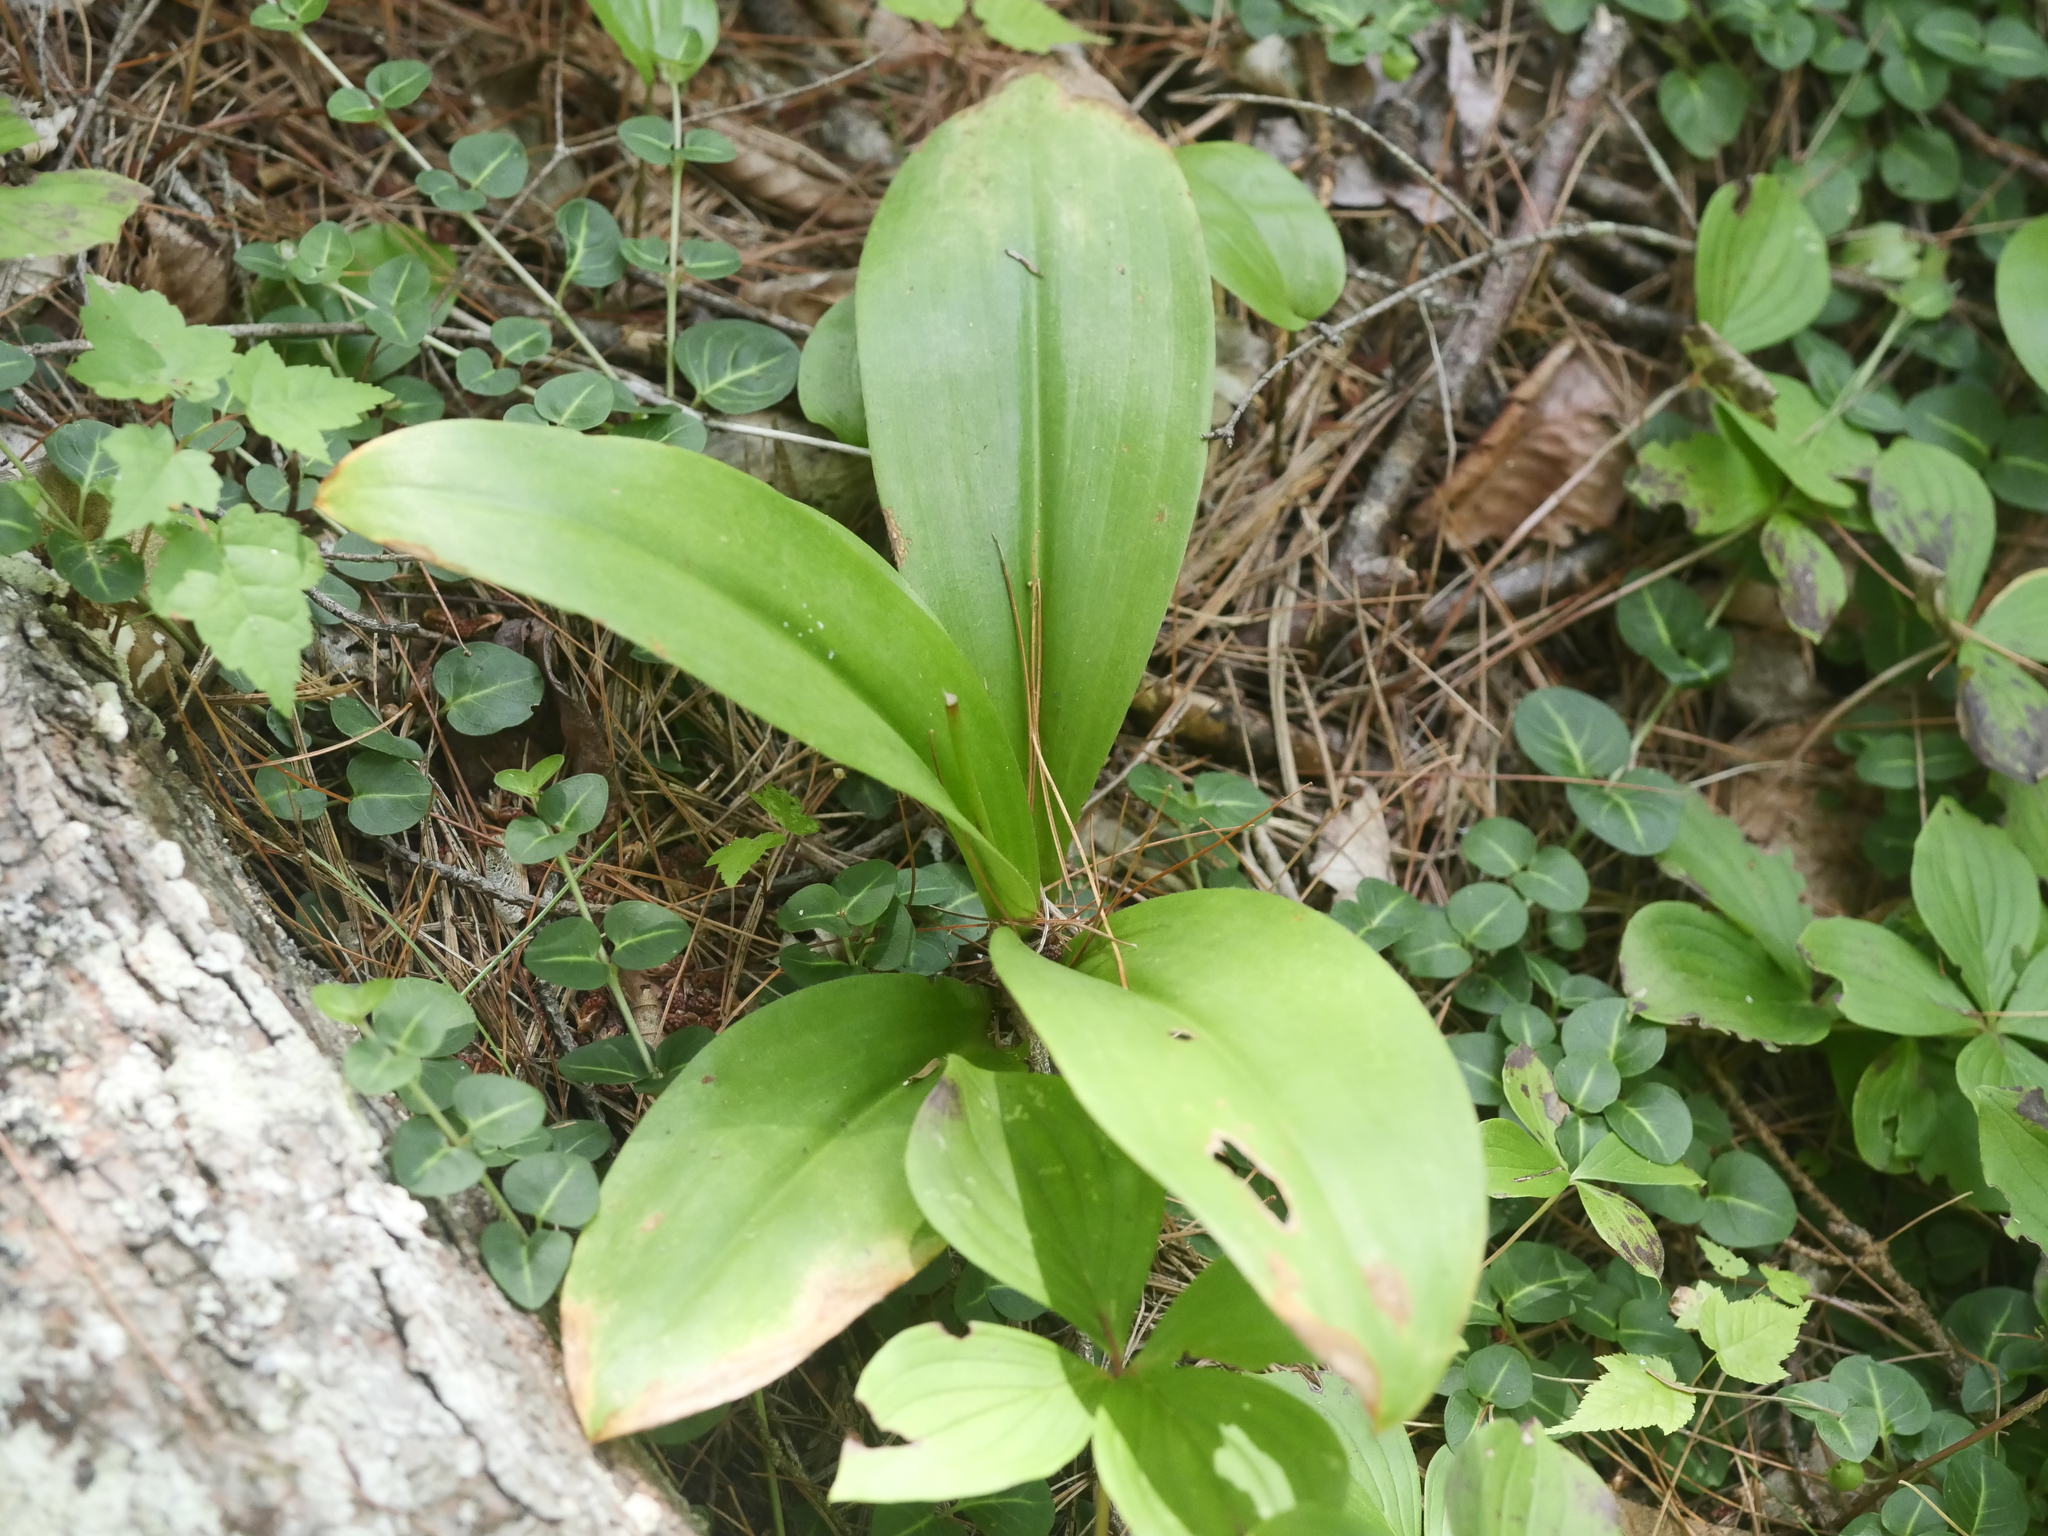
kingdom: Plantae
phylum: Tracheophyta
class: Liliopsida
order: Liliales
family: Liliaceae
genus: Clintonia
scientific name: Clintonia borealis
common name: Yellow clintonia
